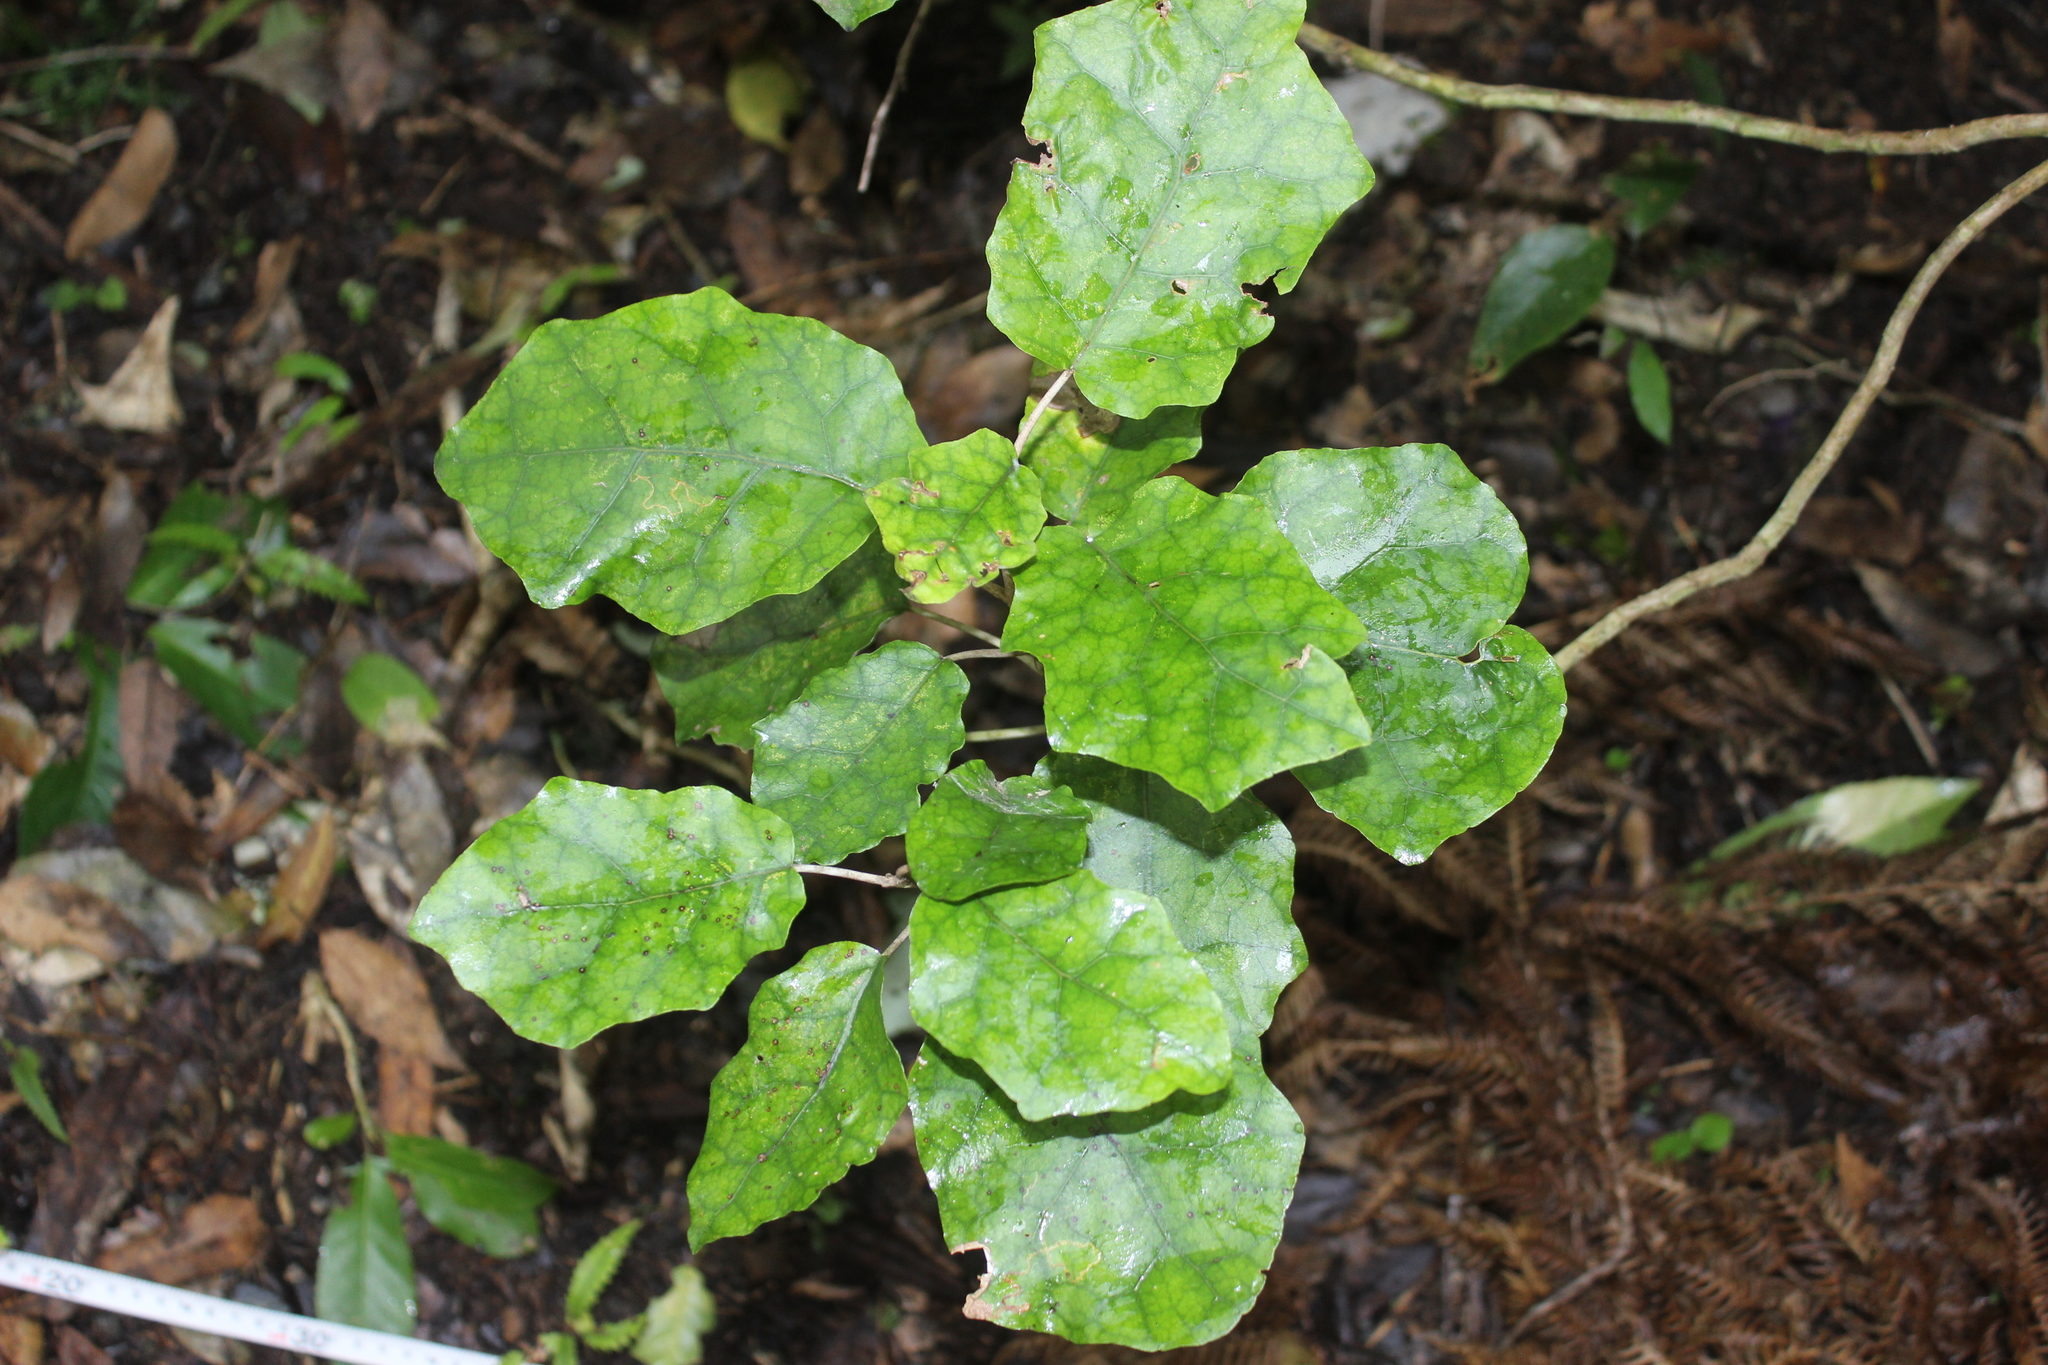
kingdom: Plantae
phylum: Tracheophyta
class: Magnoliopsida
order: Asterales
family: Asteraceae
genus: Brachyglottis
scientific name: Brachyglottis repanda
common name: Hedge ragwort
